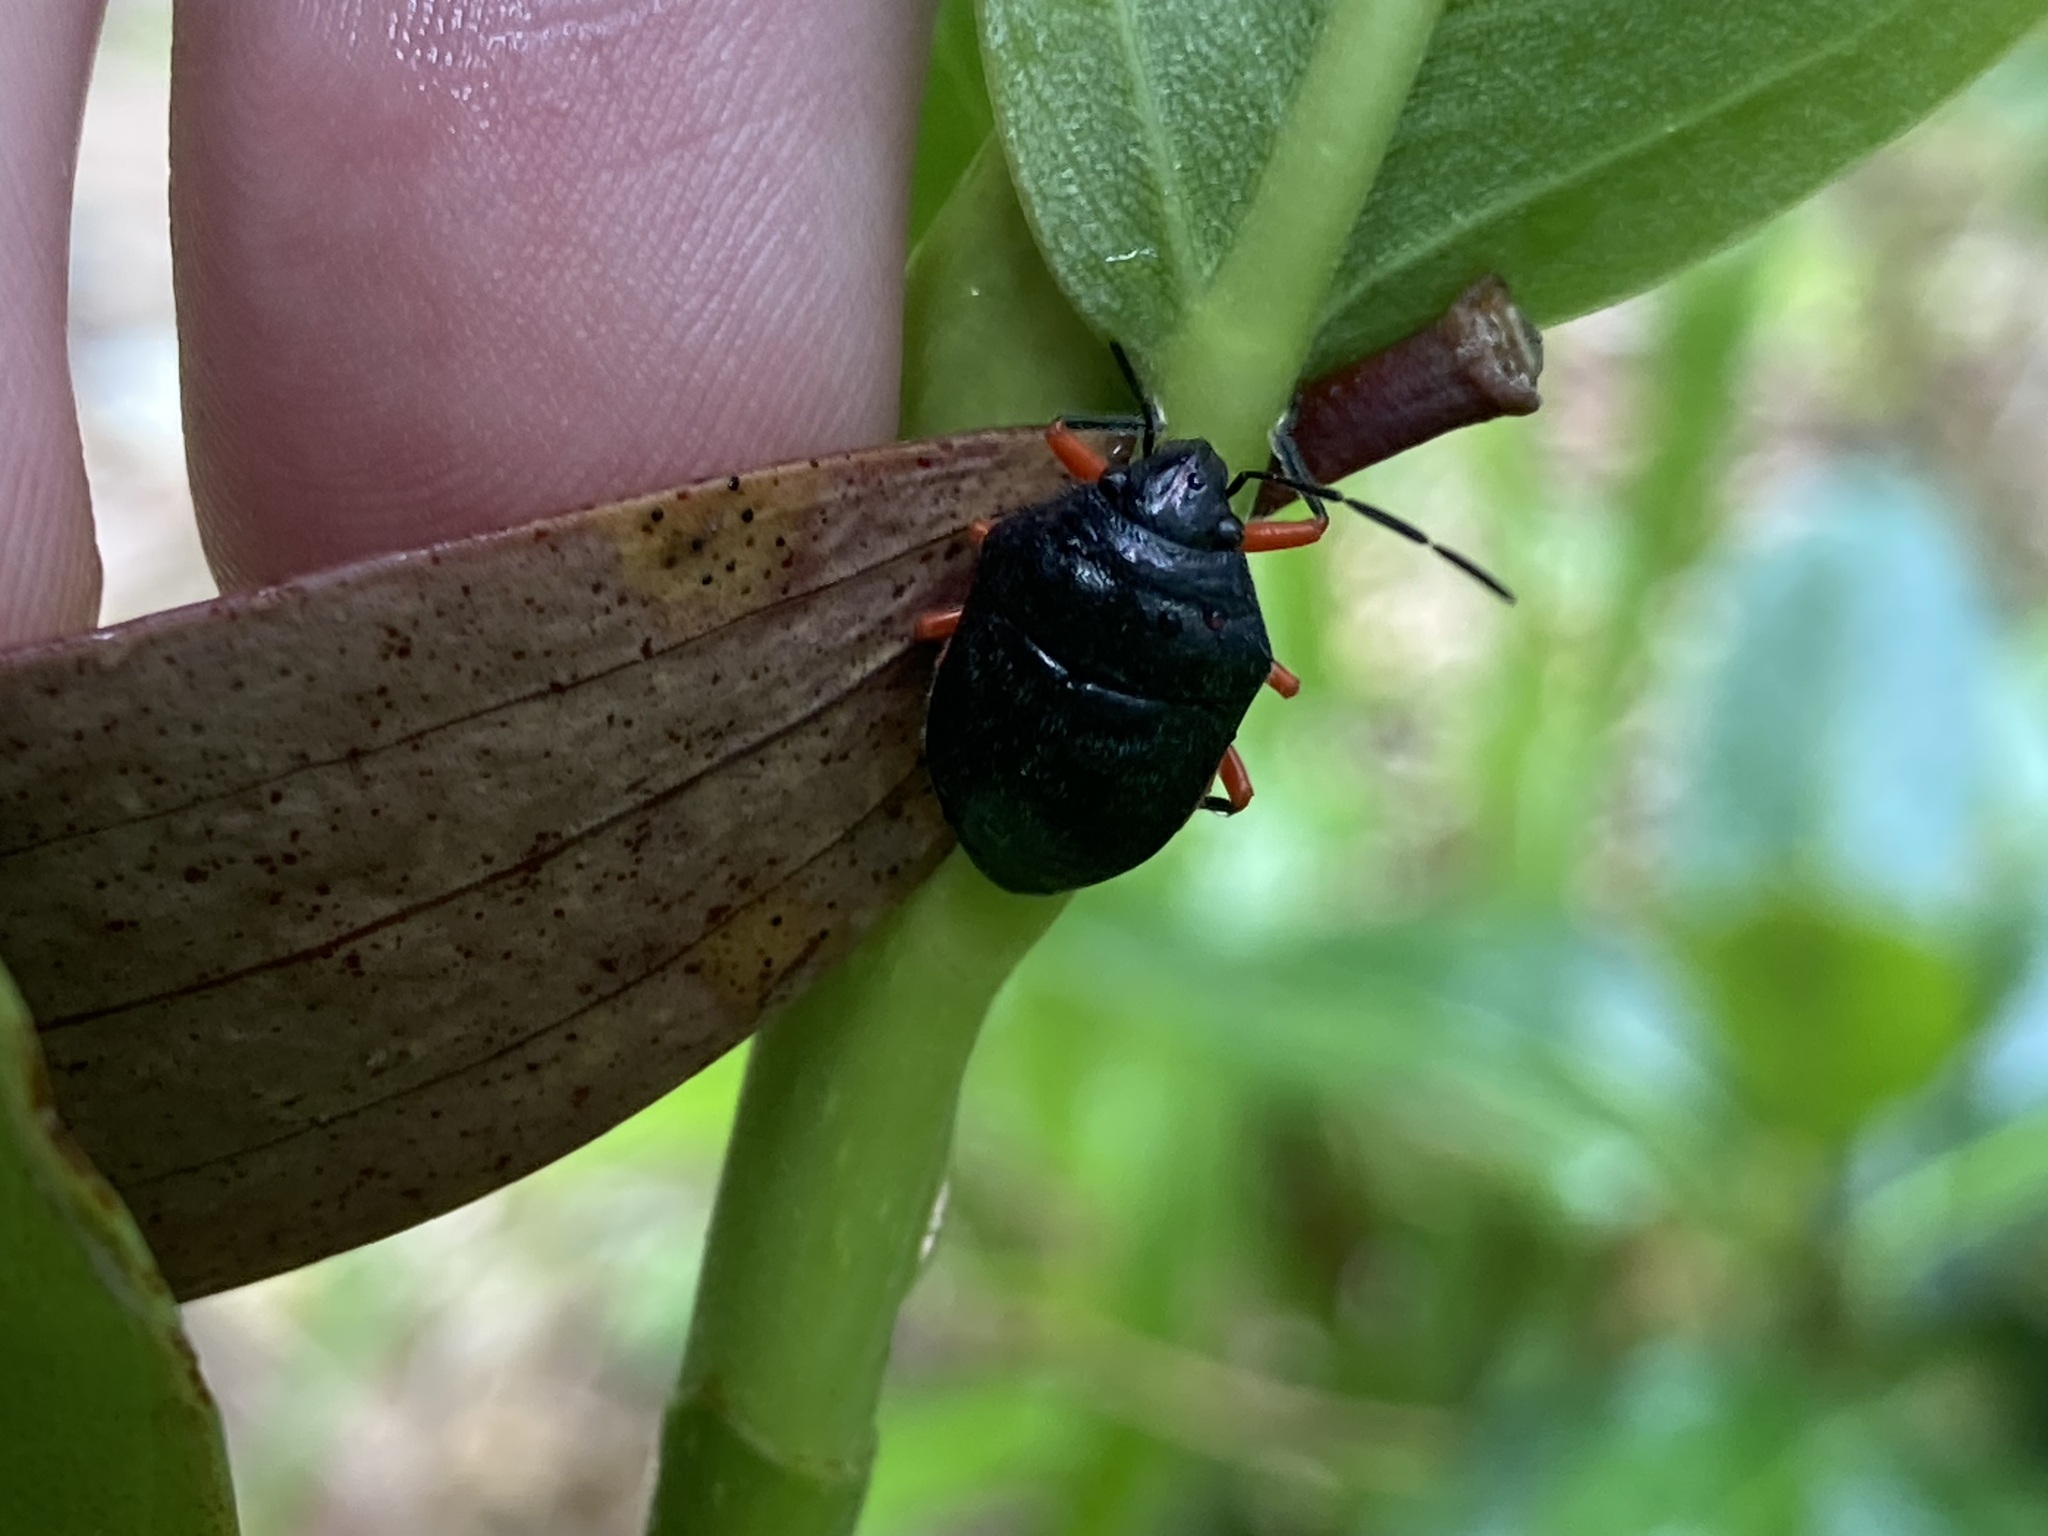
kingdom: Animalia
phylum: Arthropoda
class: Insecta
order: Hemiptera
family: Scutelleridae
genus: Lampromicra
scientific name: Lampromicra
